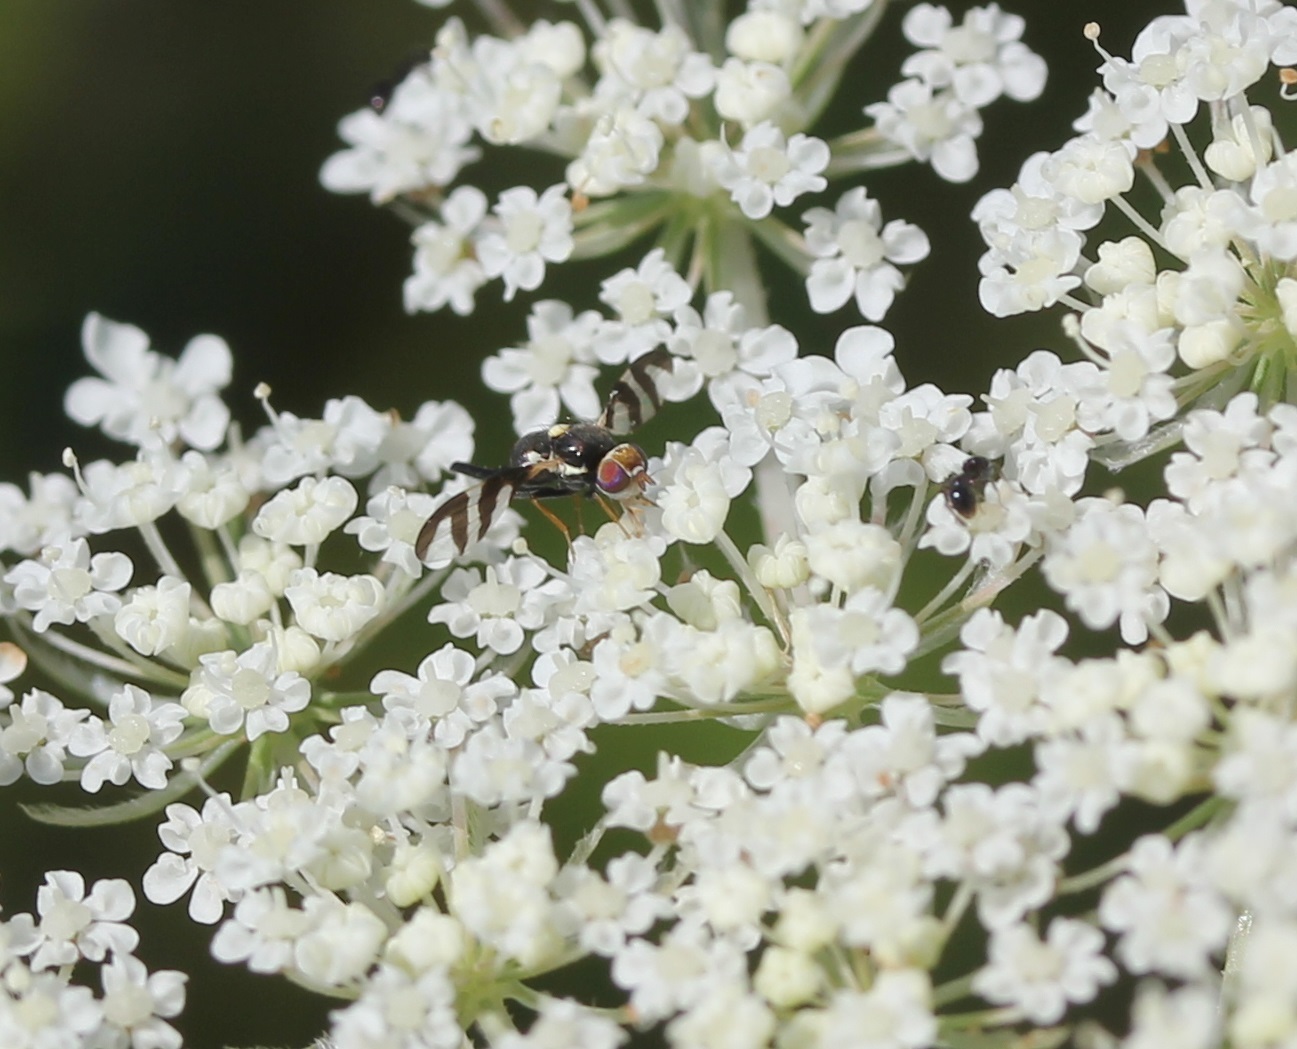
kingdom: Animalia
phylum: Arthropoda
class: Insecta
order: Diptera
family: Tephritidae
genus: Urophora
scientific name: Urophora quadrifasciata
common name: Knapweed seedhead fly
